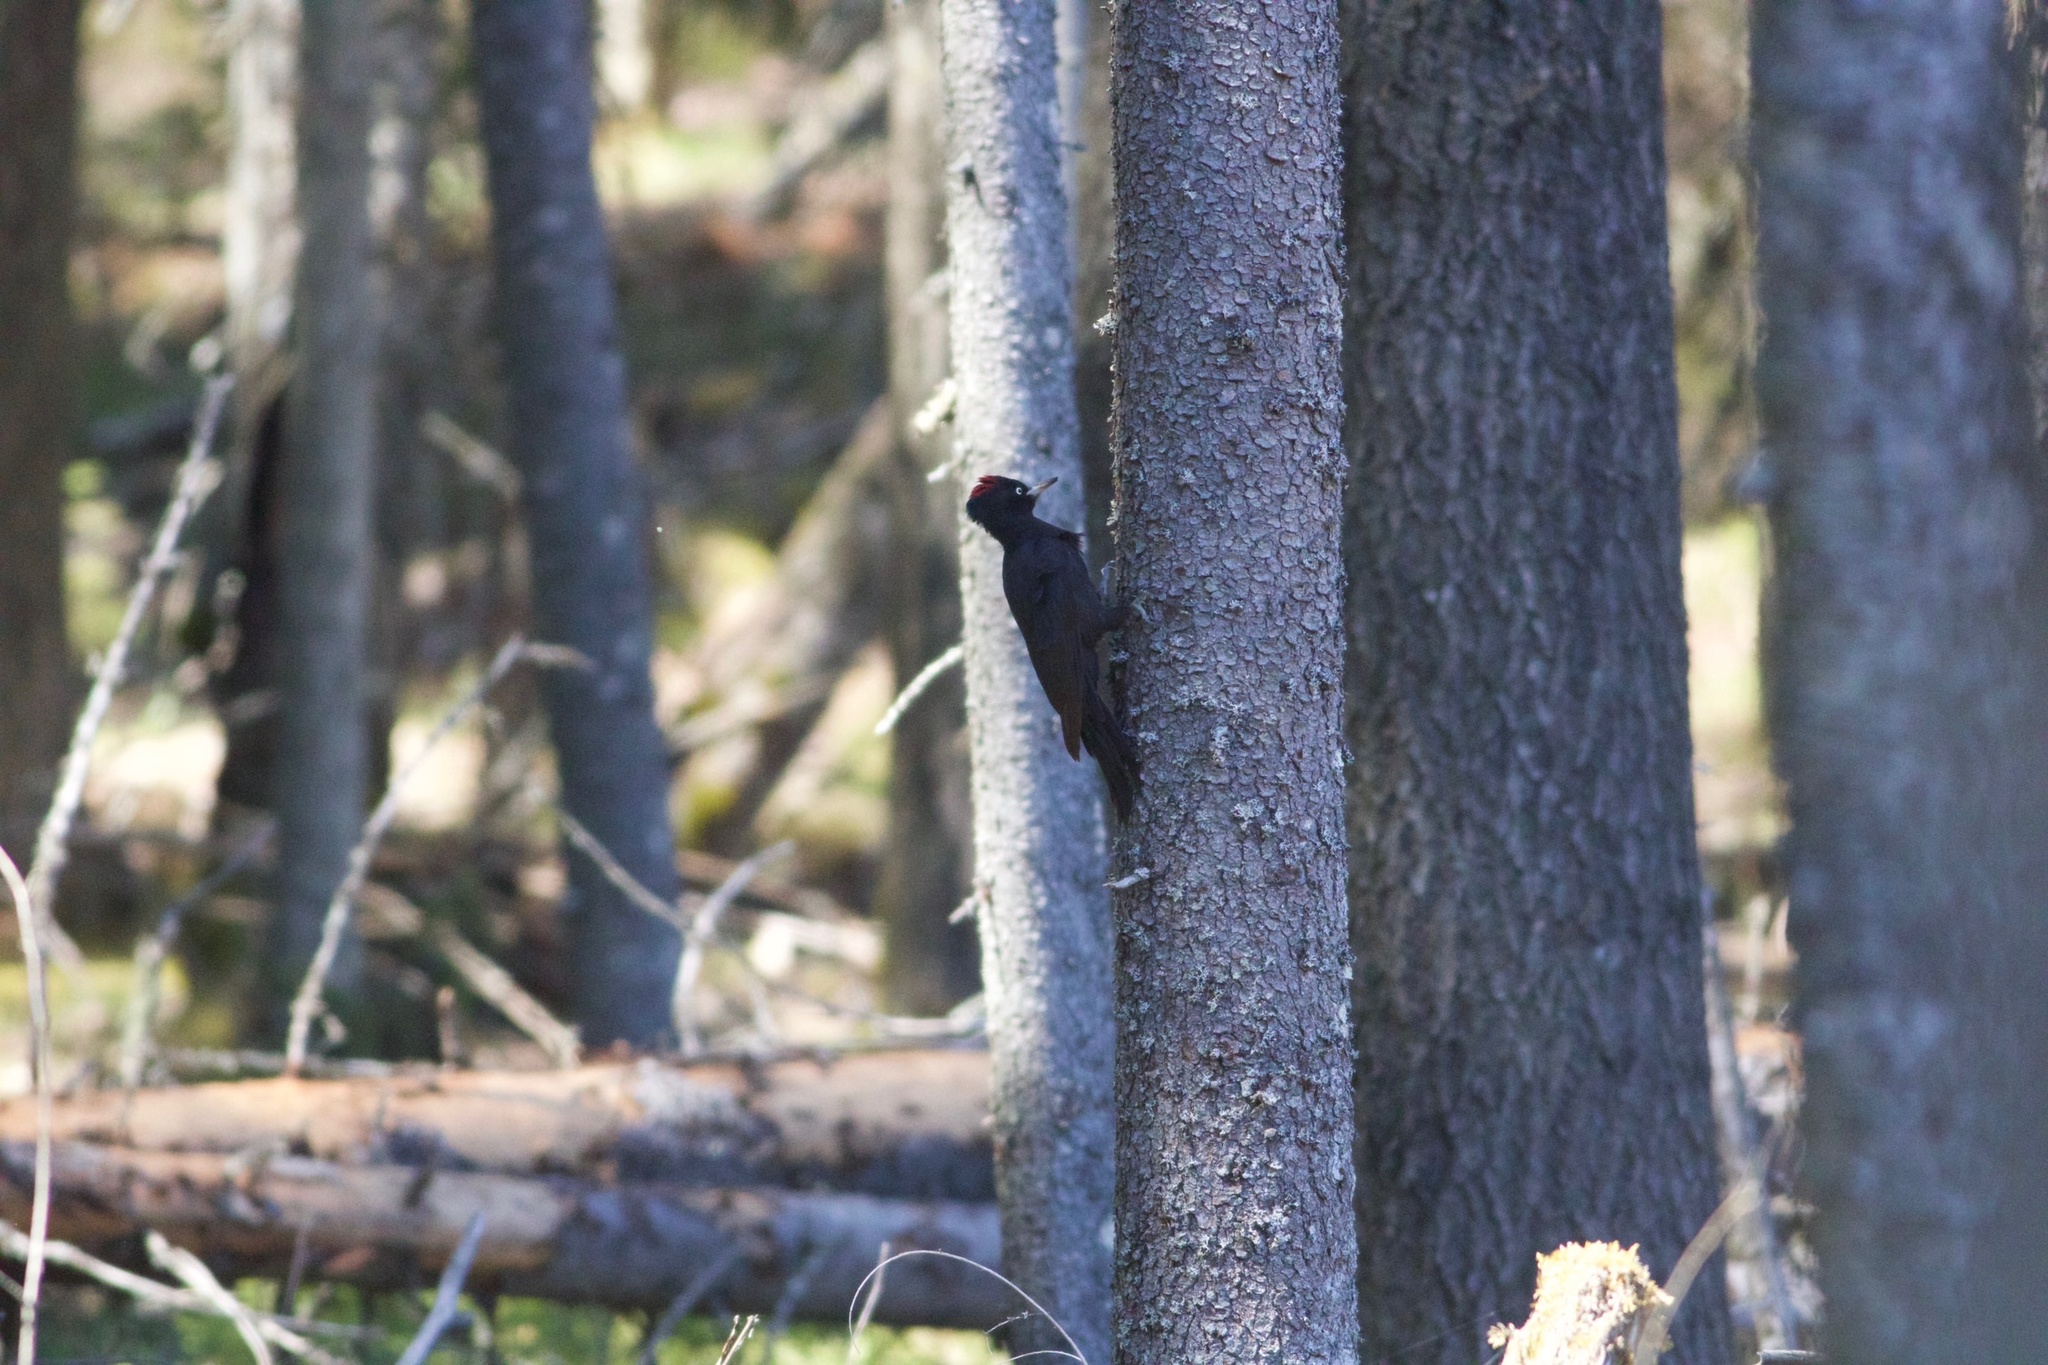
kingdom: Animalia
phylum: Chordata
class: Aves
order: Piciformes
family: Picidae
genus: Dryocopus
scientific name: Dryocopus martius
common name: Black woodpecker
